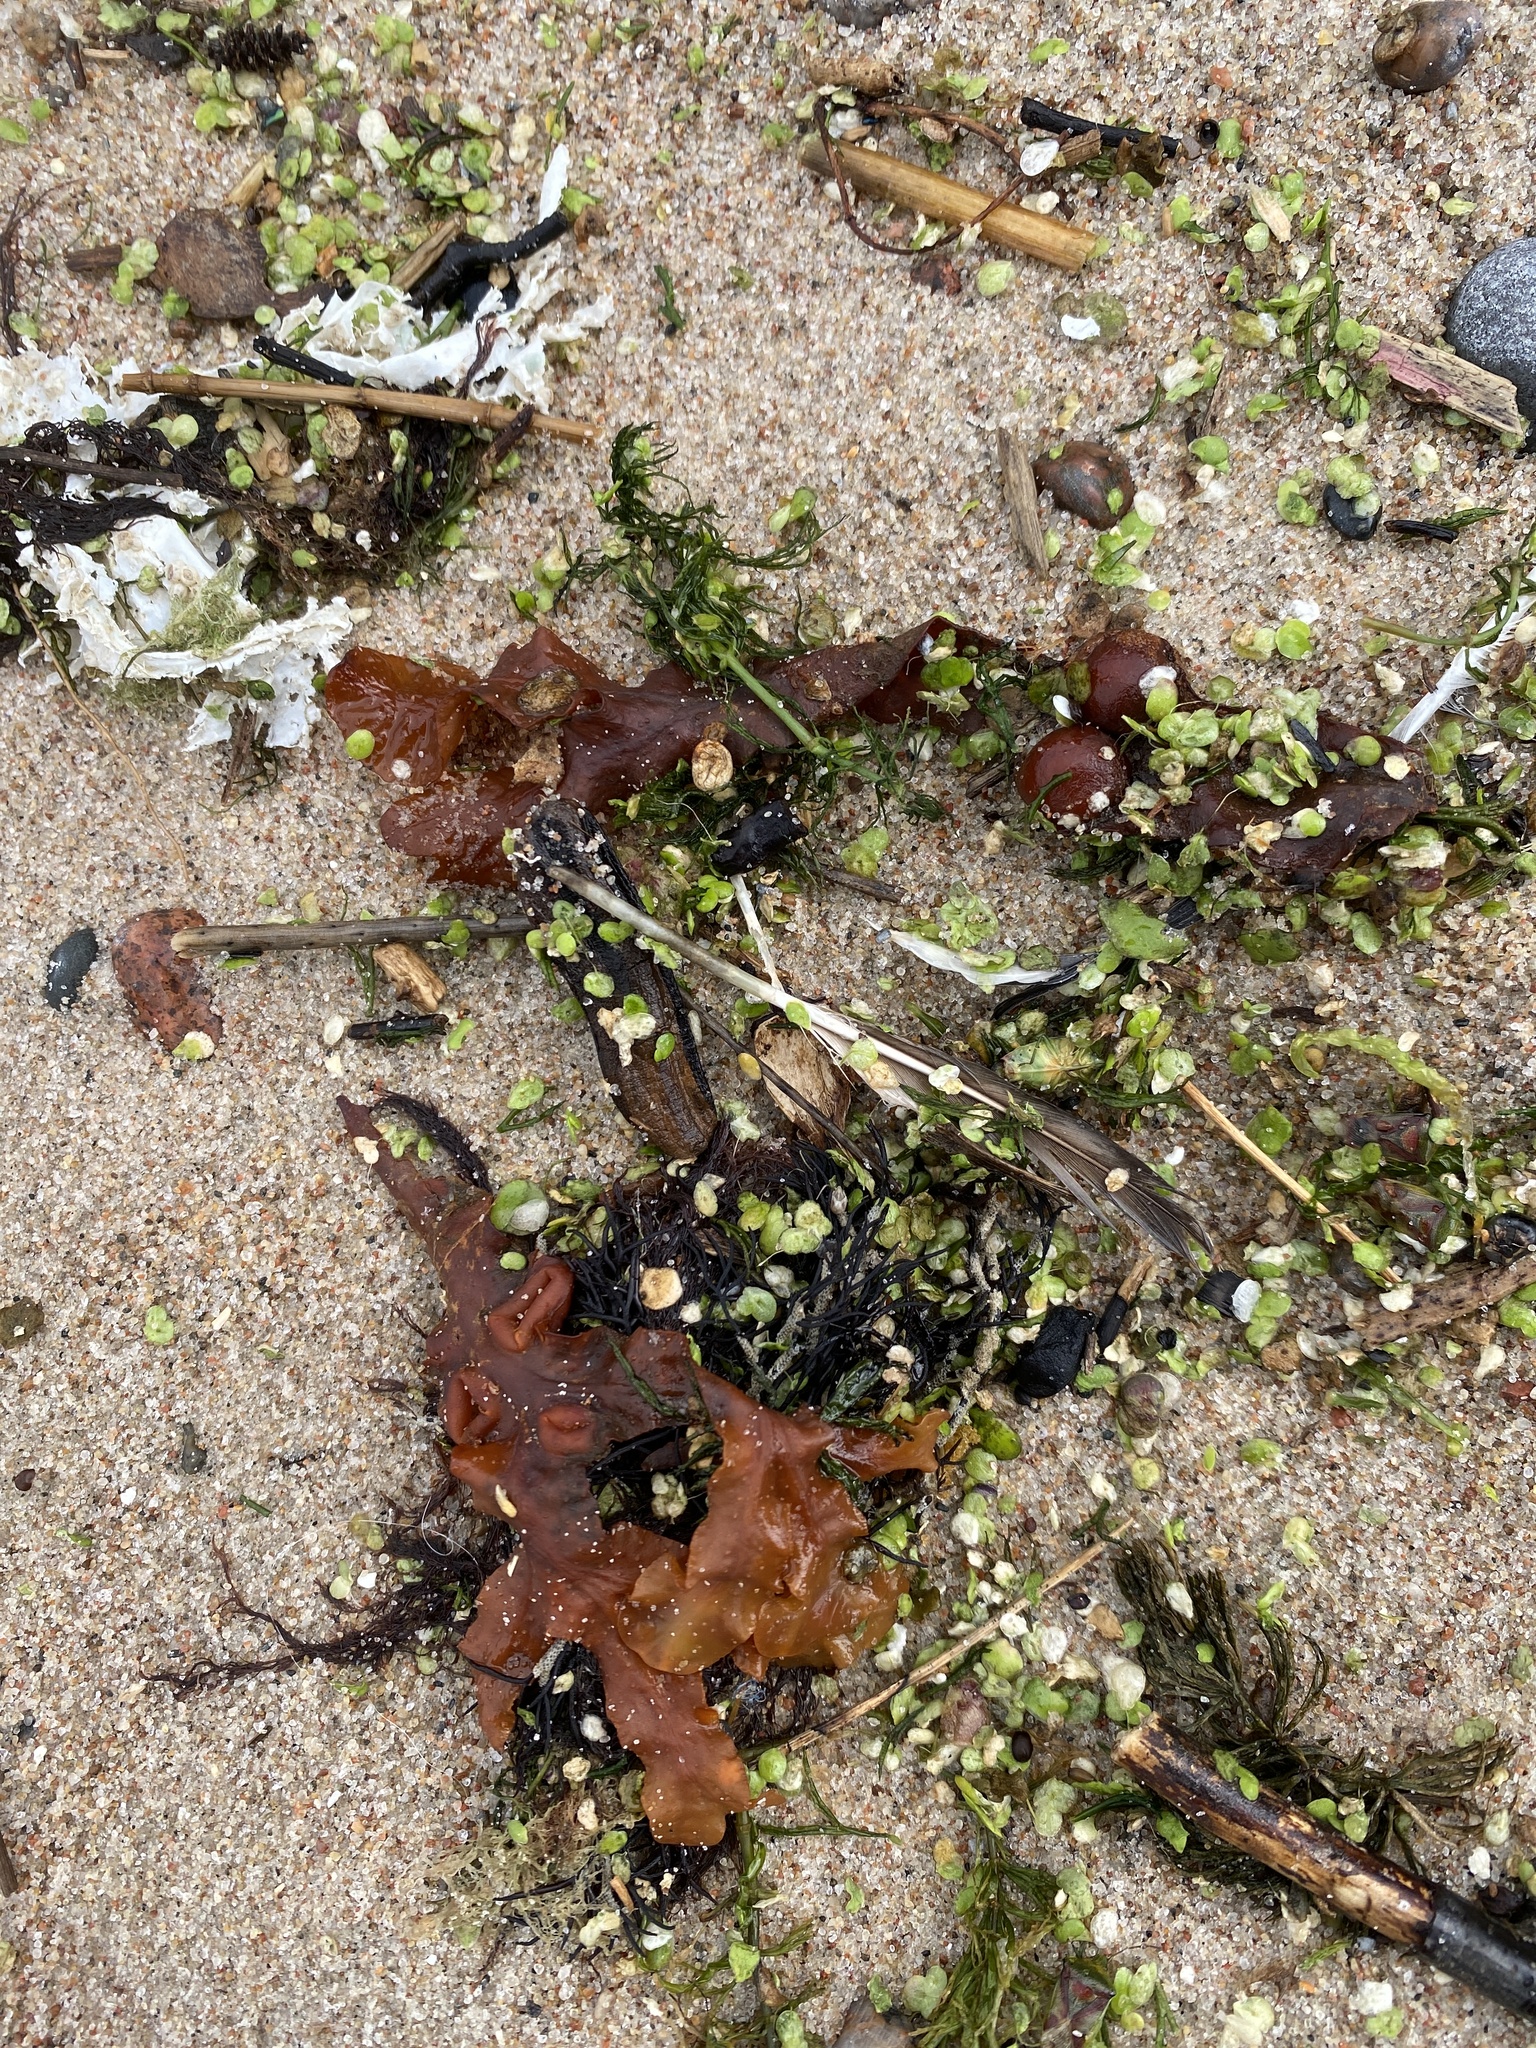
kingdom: Chromista
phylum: Ochrophyta
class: Phaeophyceae
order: Fucales
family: Fucaceae
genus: Fucus
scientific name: Fucus vesiculosus
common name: Bladder wrack
